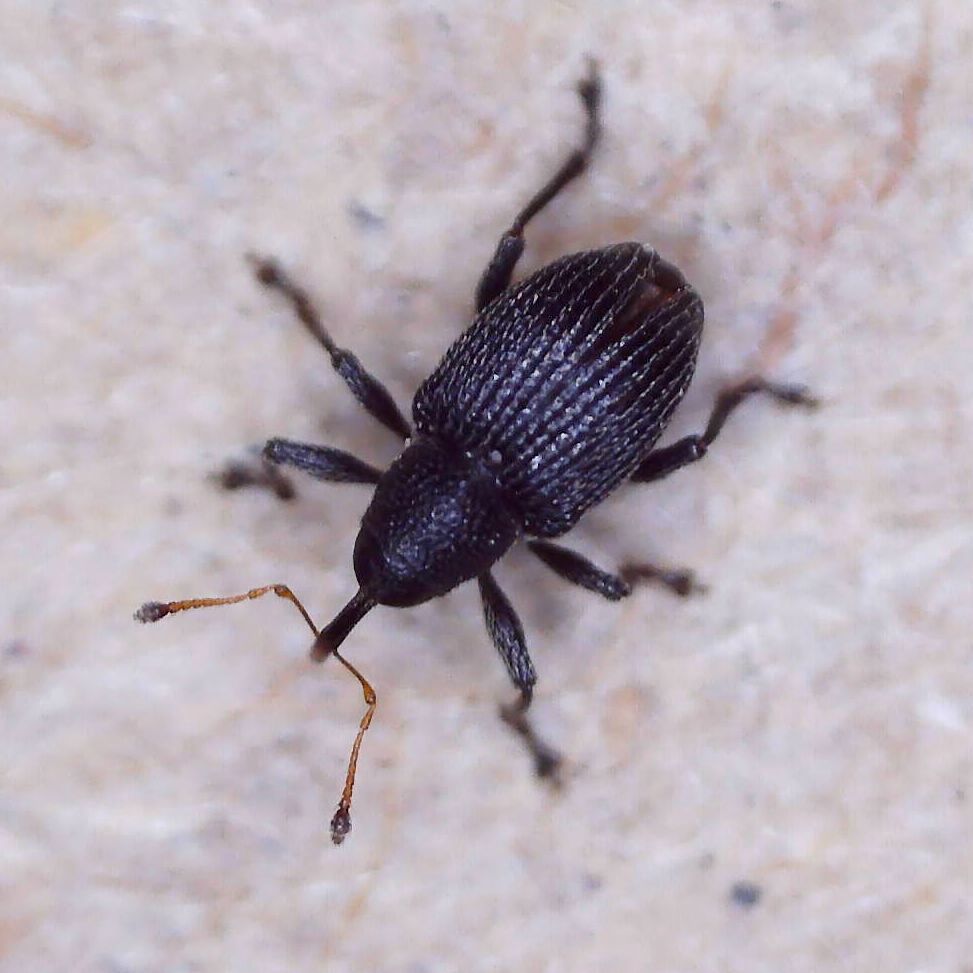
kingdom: Animalia
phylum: Arthropoda
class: Insecta
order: Coleoptera
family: Curculionidae
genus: Archarius
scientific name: Archarius pyrrhoceras
